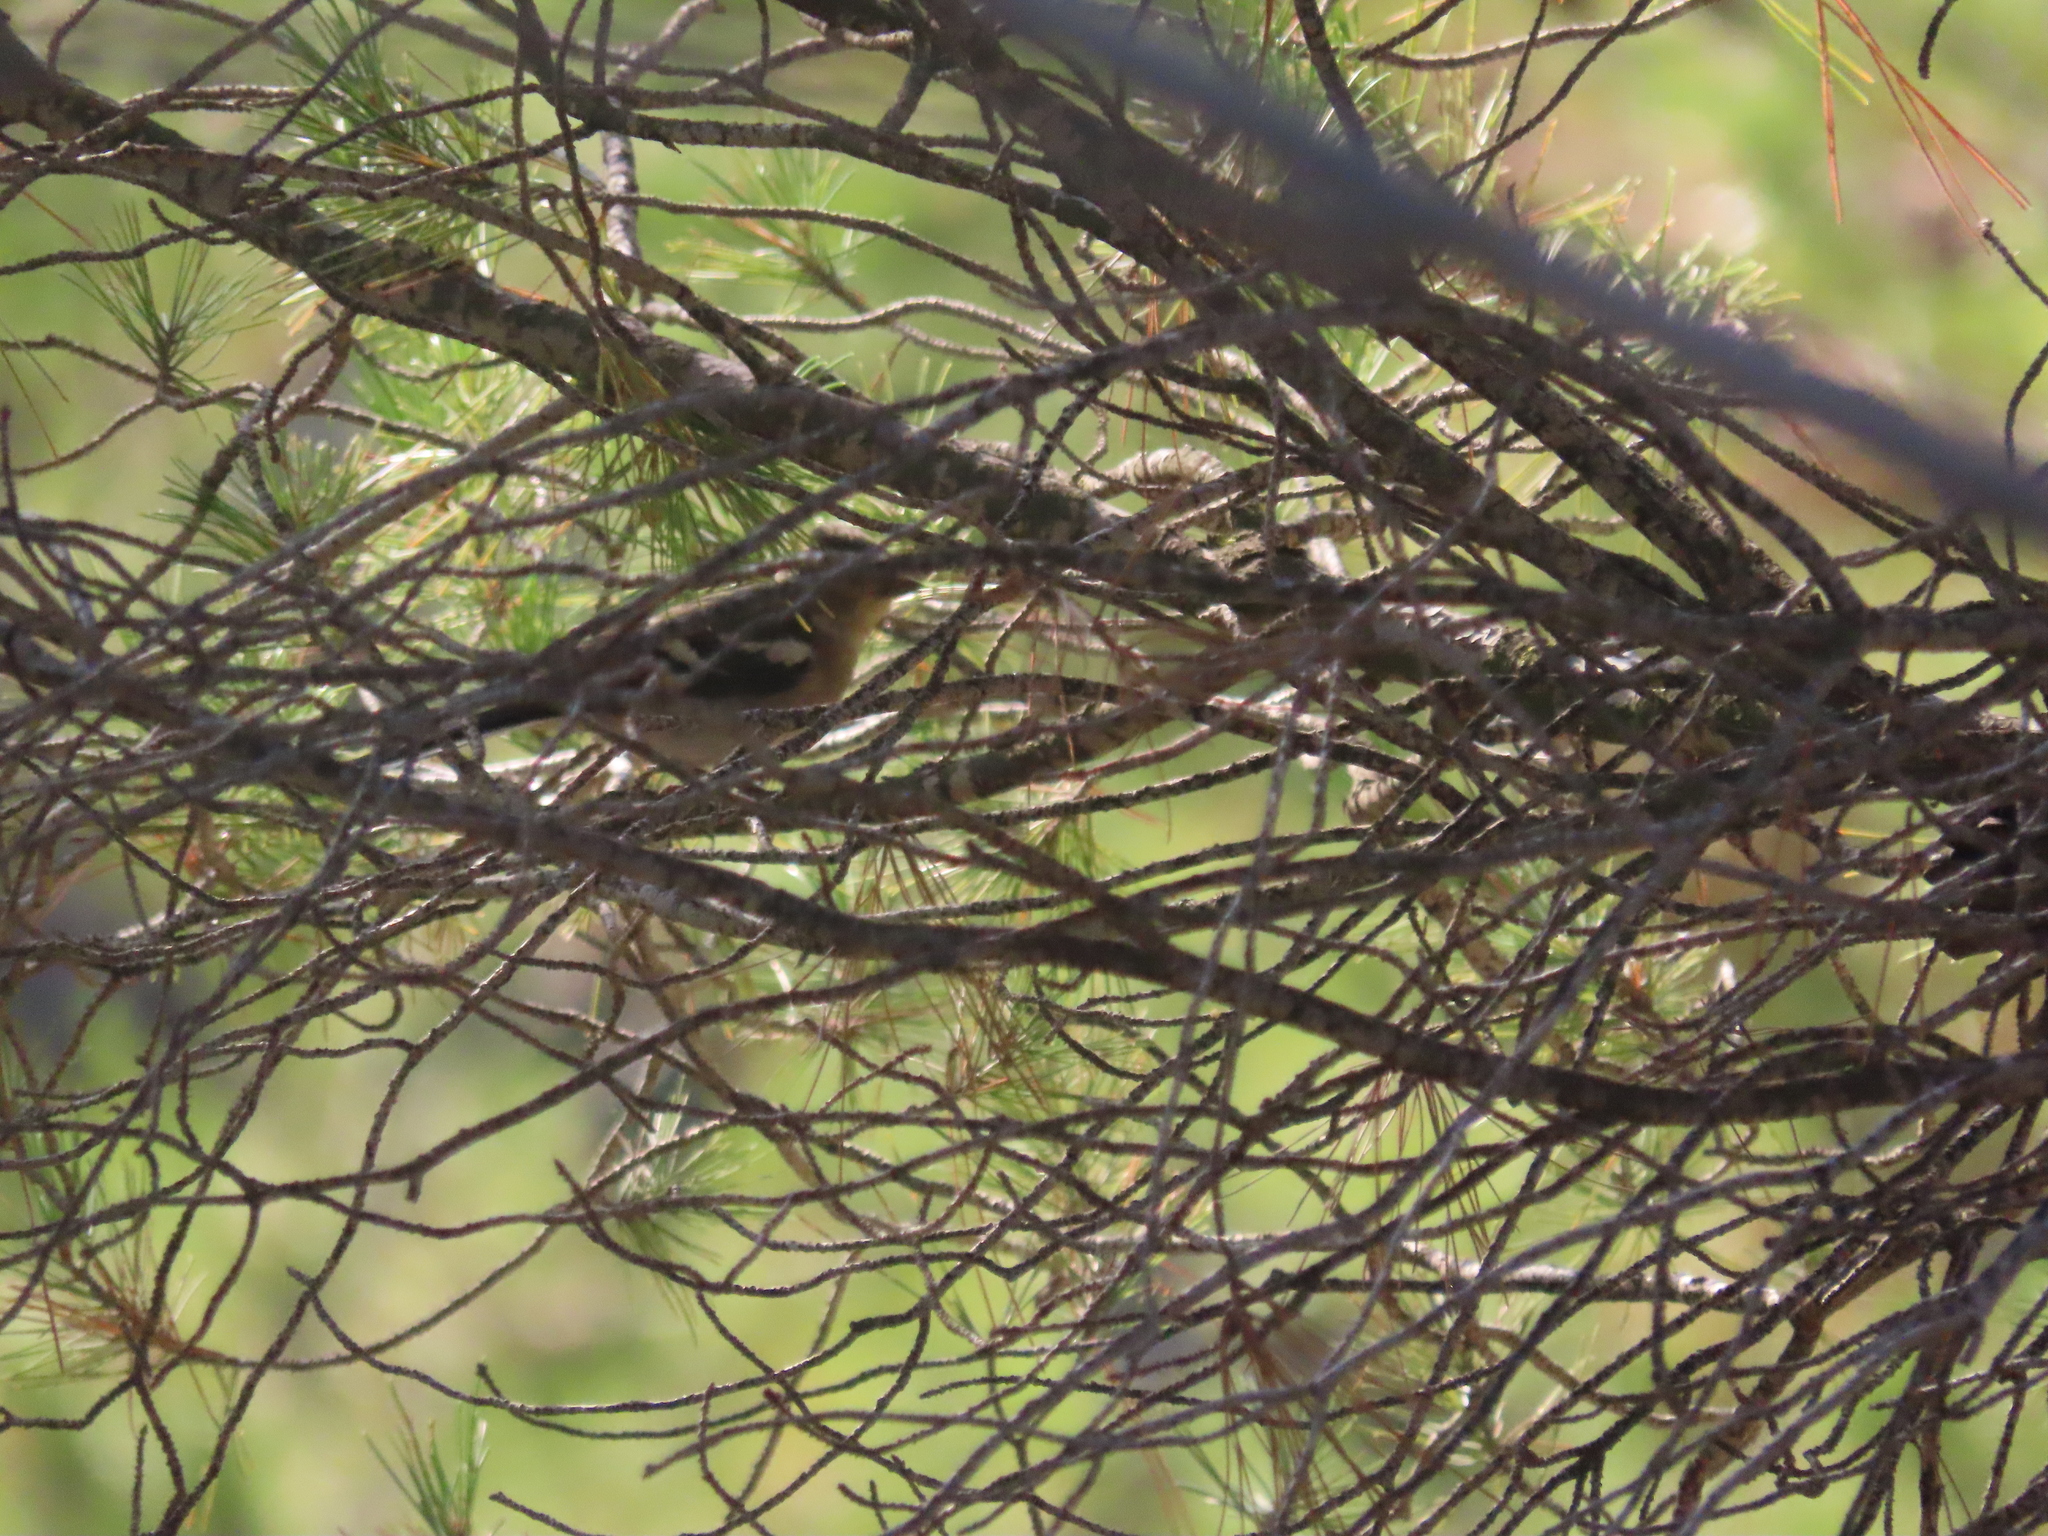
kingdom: Animalia
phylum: Chordata
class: Aves
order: Passeriformes
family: Fringillidae
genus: Fringilla
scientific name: Fringilla coelebs
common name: Common chaffinch
